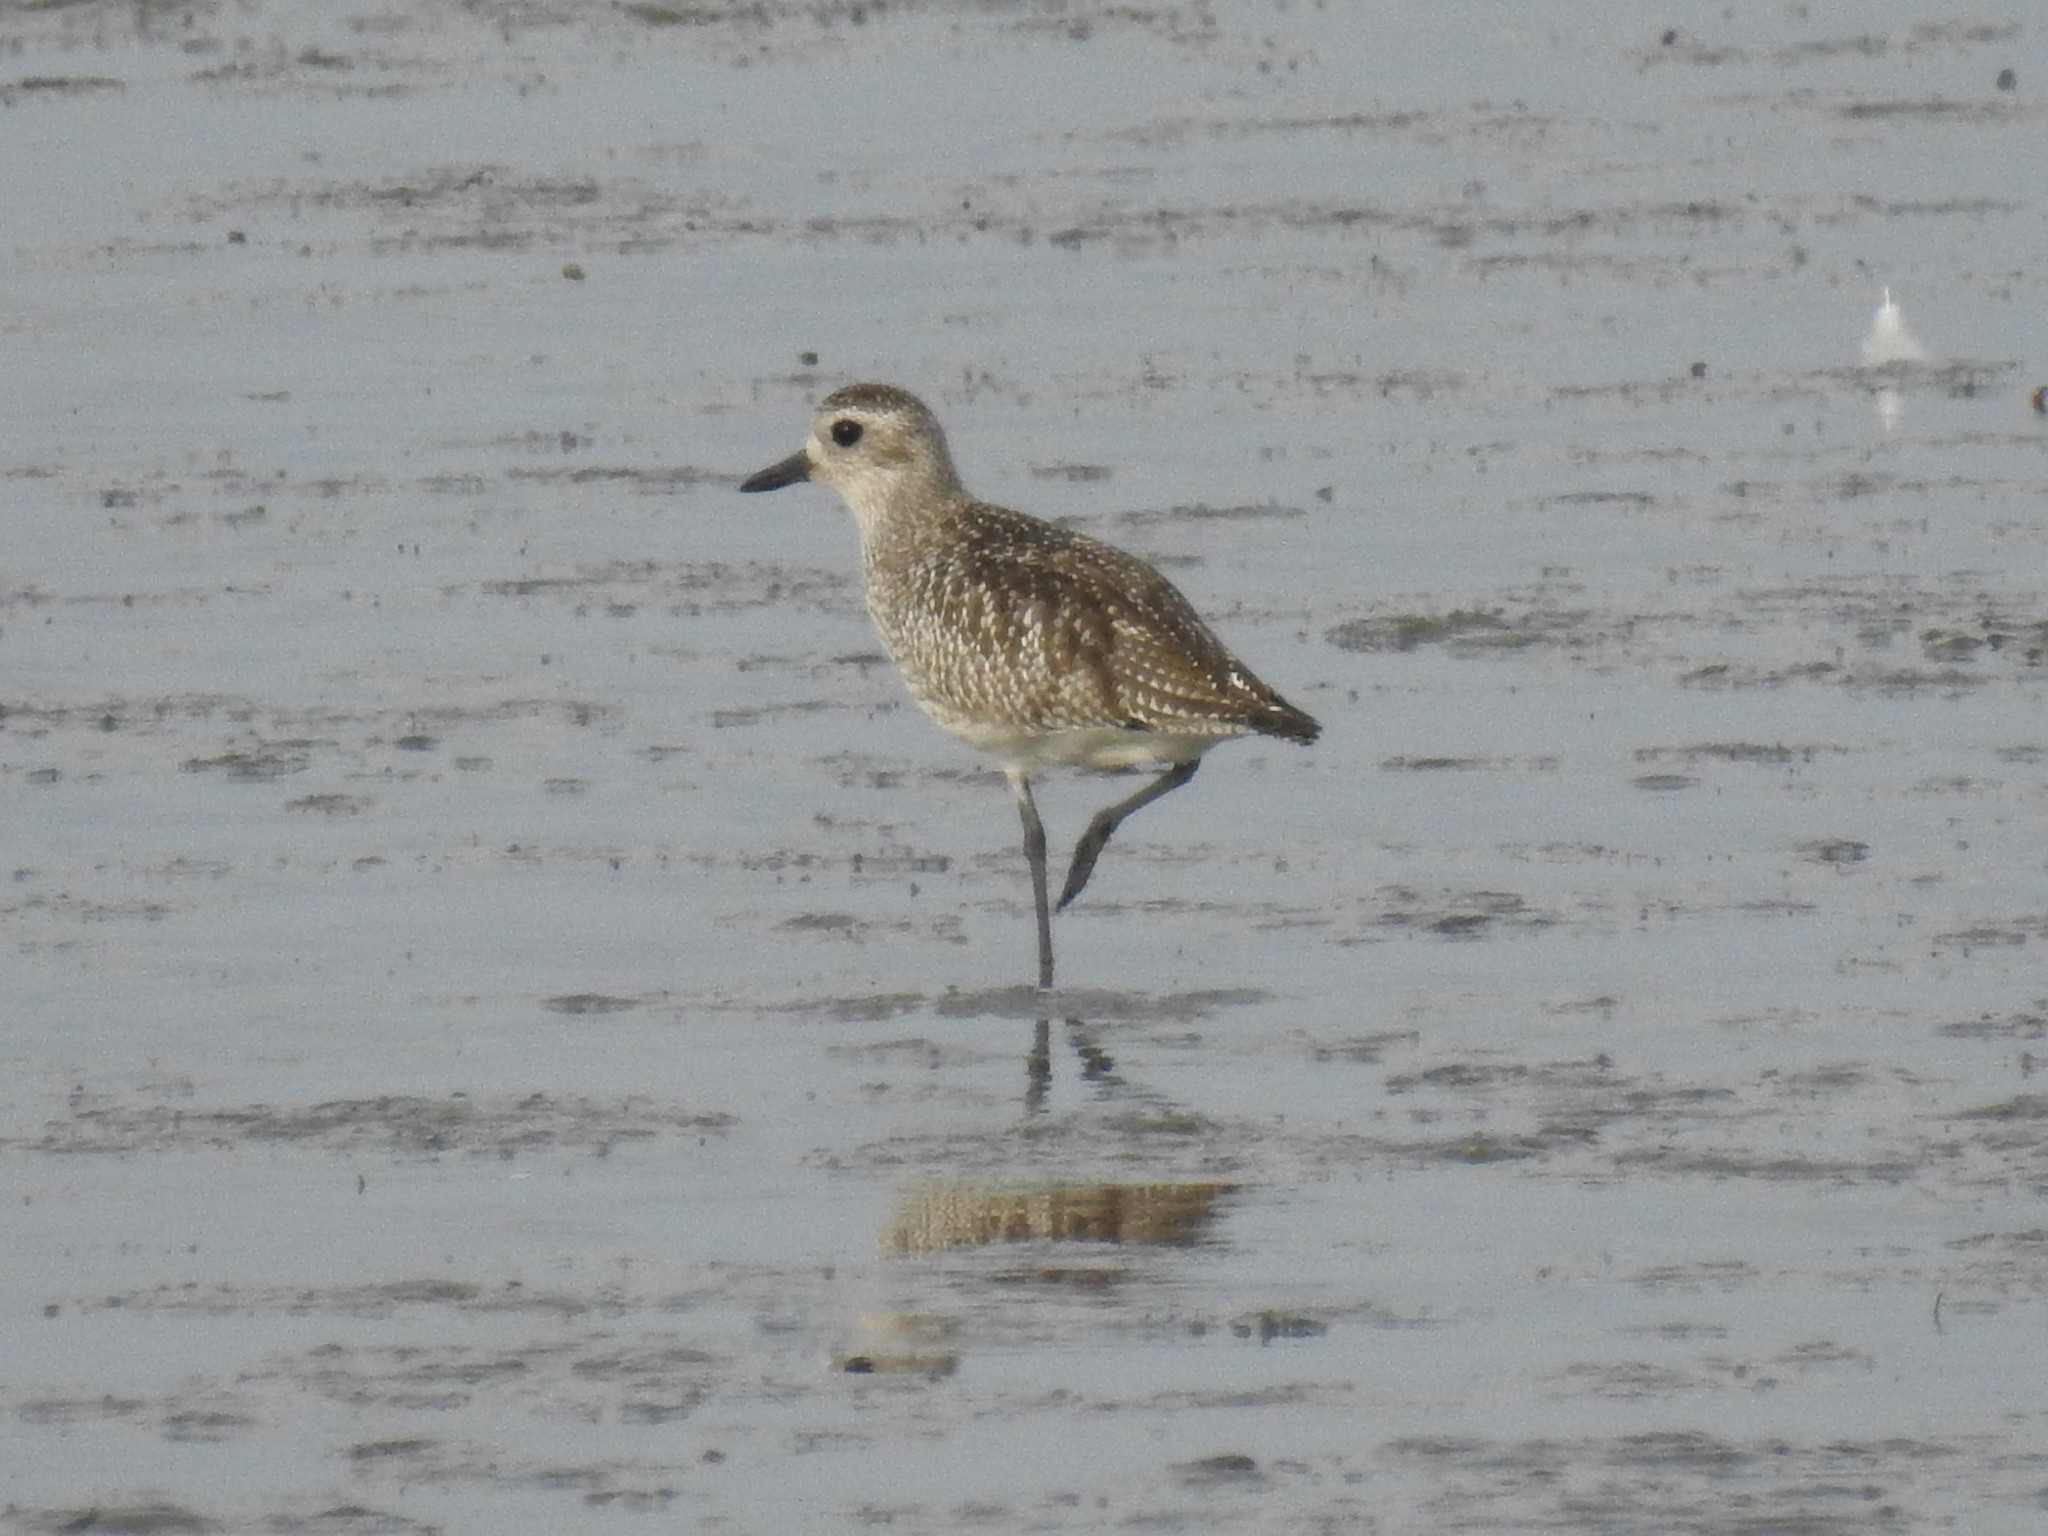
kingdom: Animalia
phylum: Chordata
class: Aves
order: Charadriiformes
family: Charadriidae
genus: Pluvialis
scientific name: Pluvialis squatarola
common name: Grey plover
